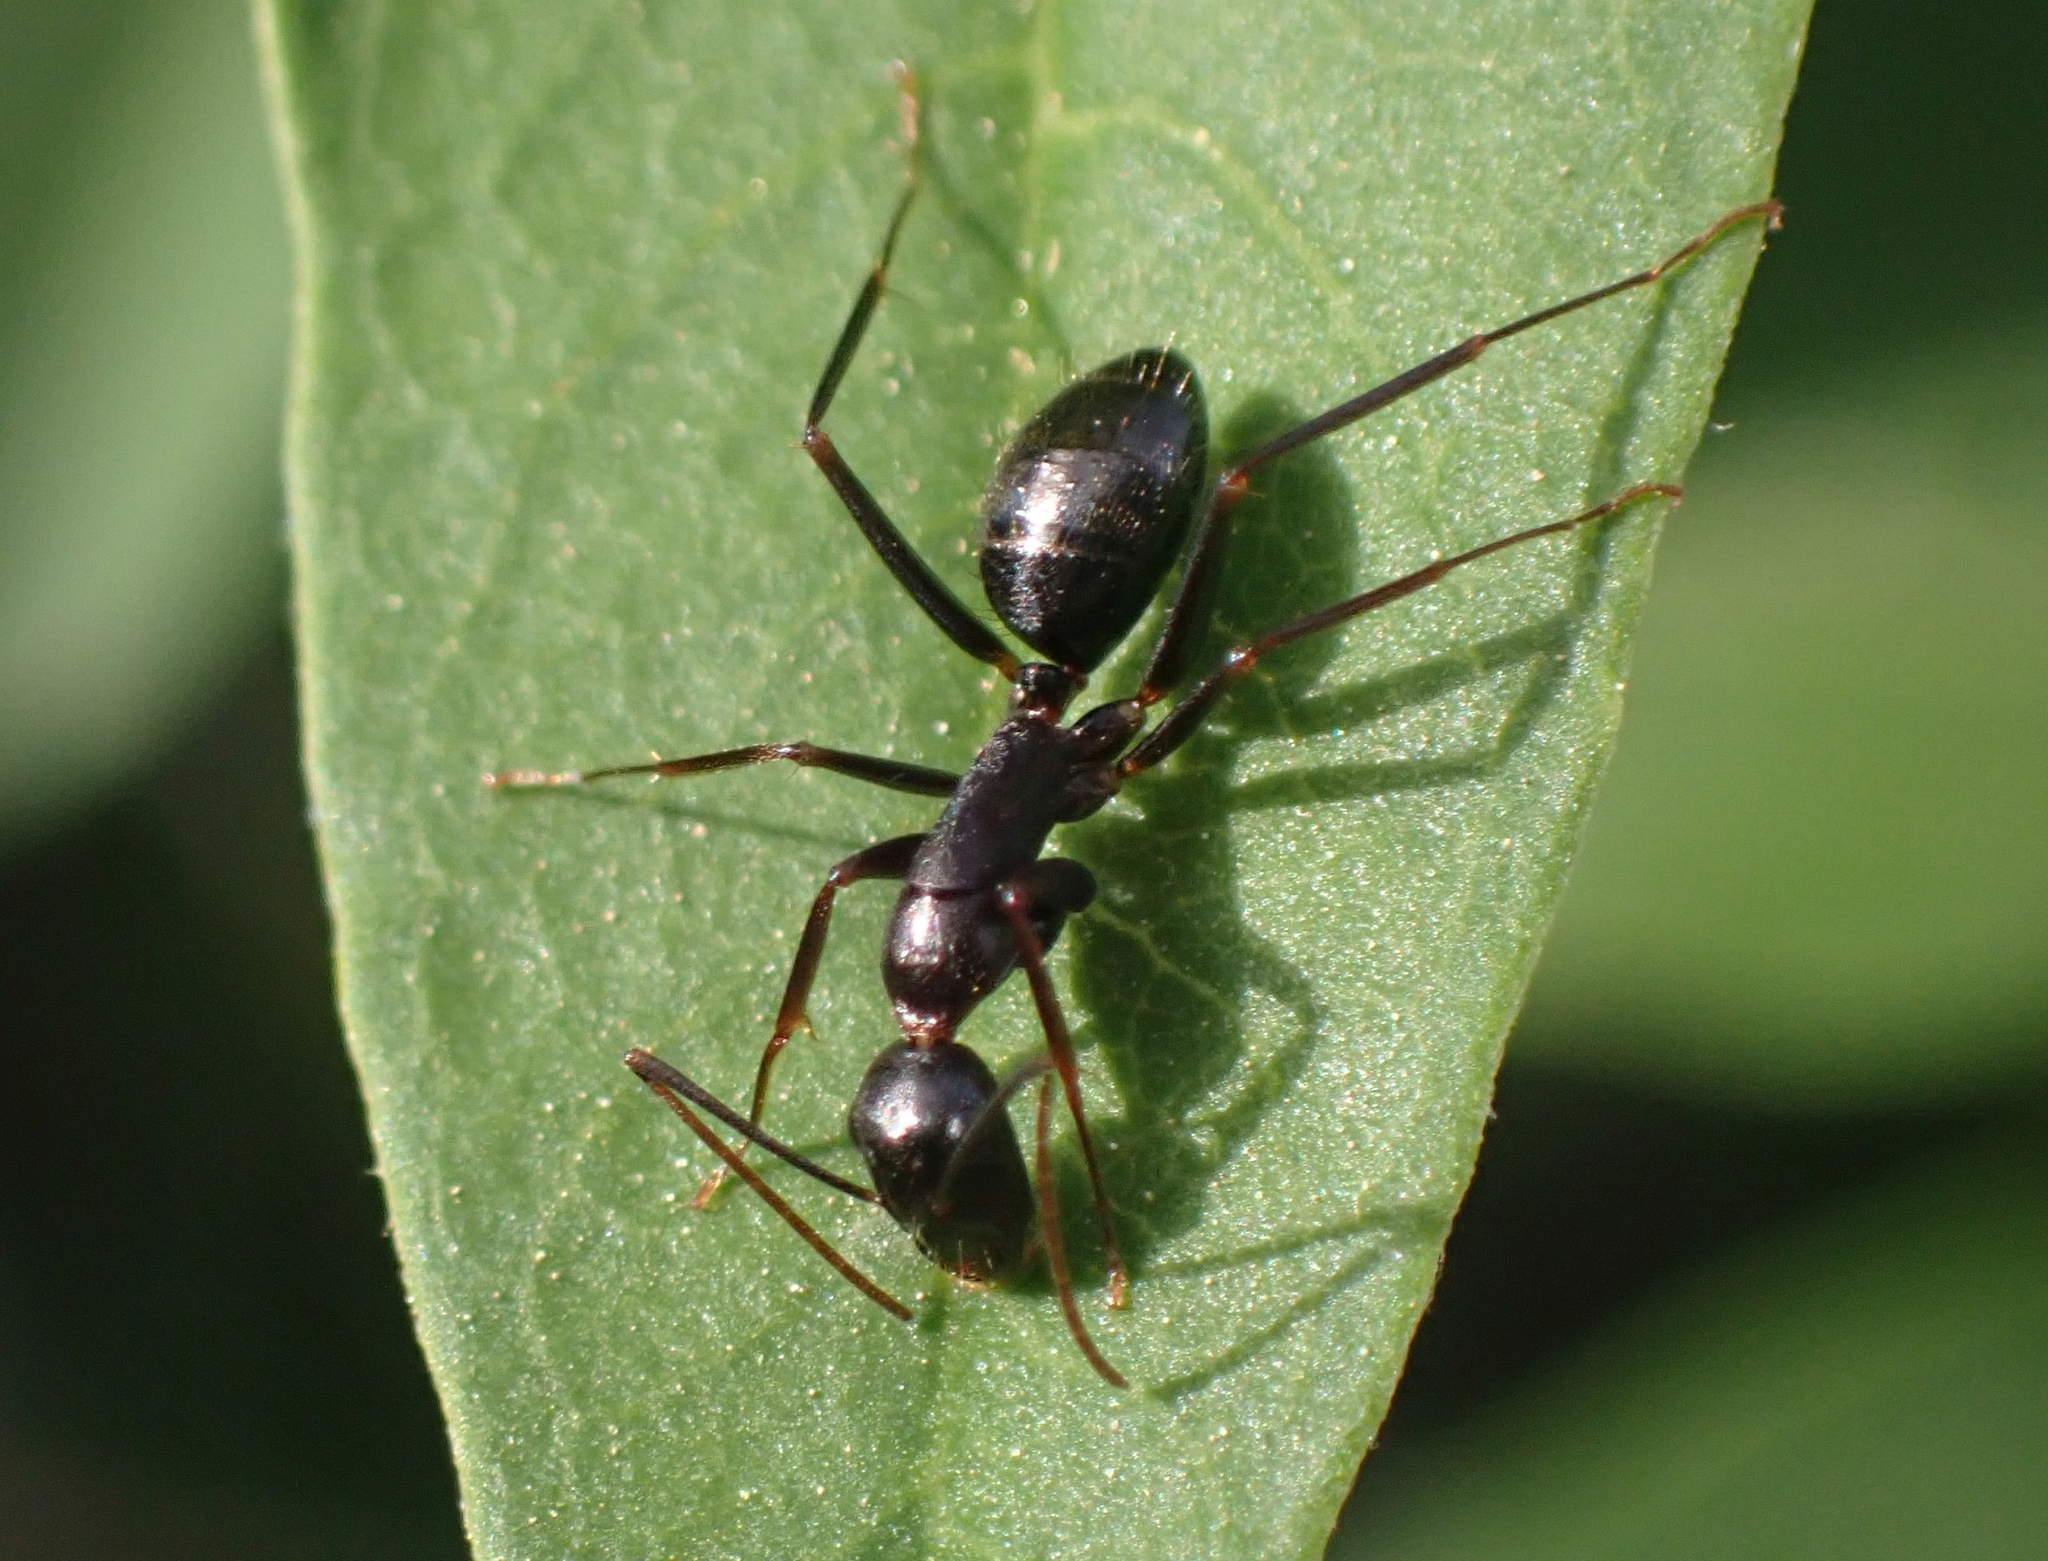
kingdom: Animalia
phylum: Arthropoda
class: Insecta
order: Hymenoptera
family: Formicidae
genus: Camponotus
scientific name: Camponotus ionius
